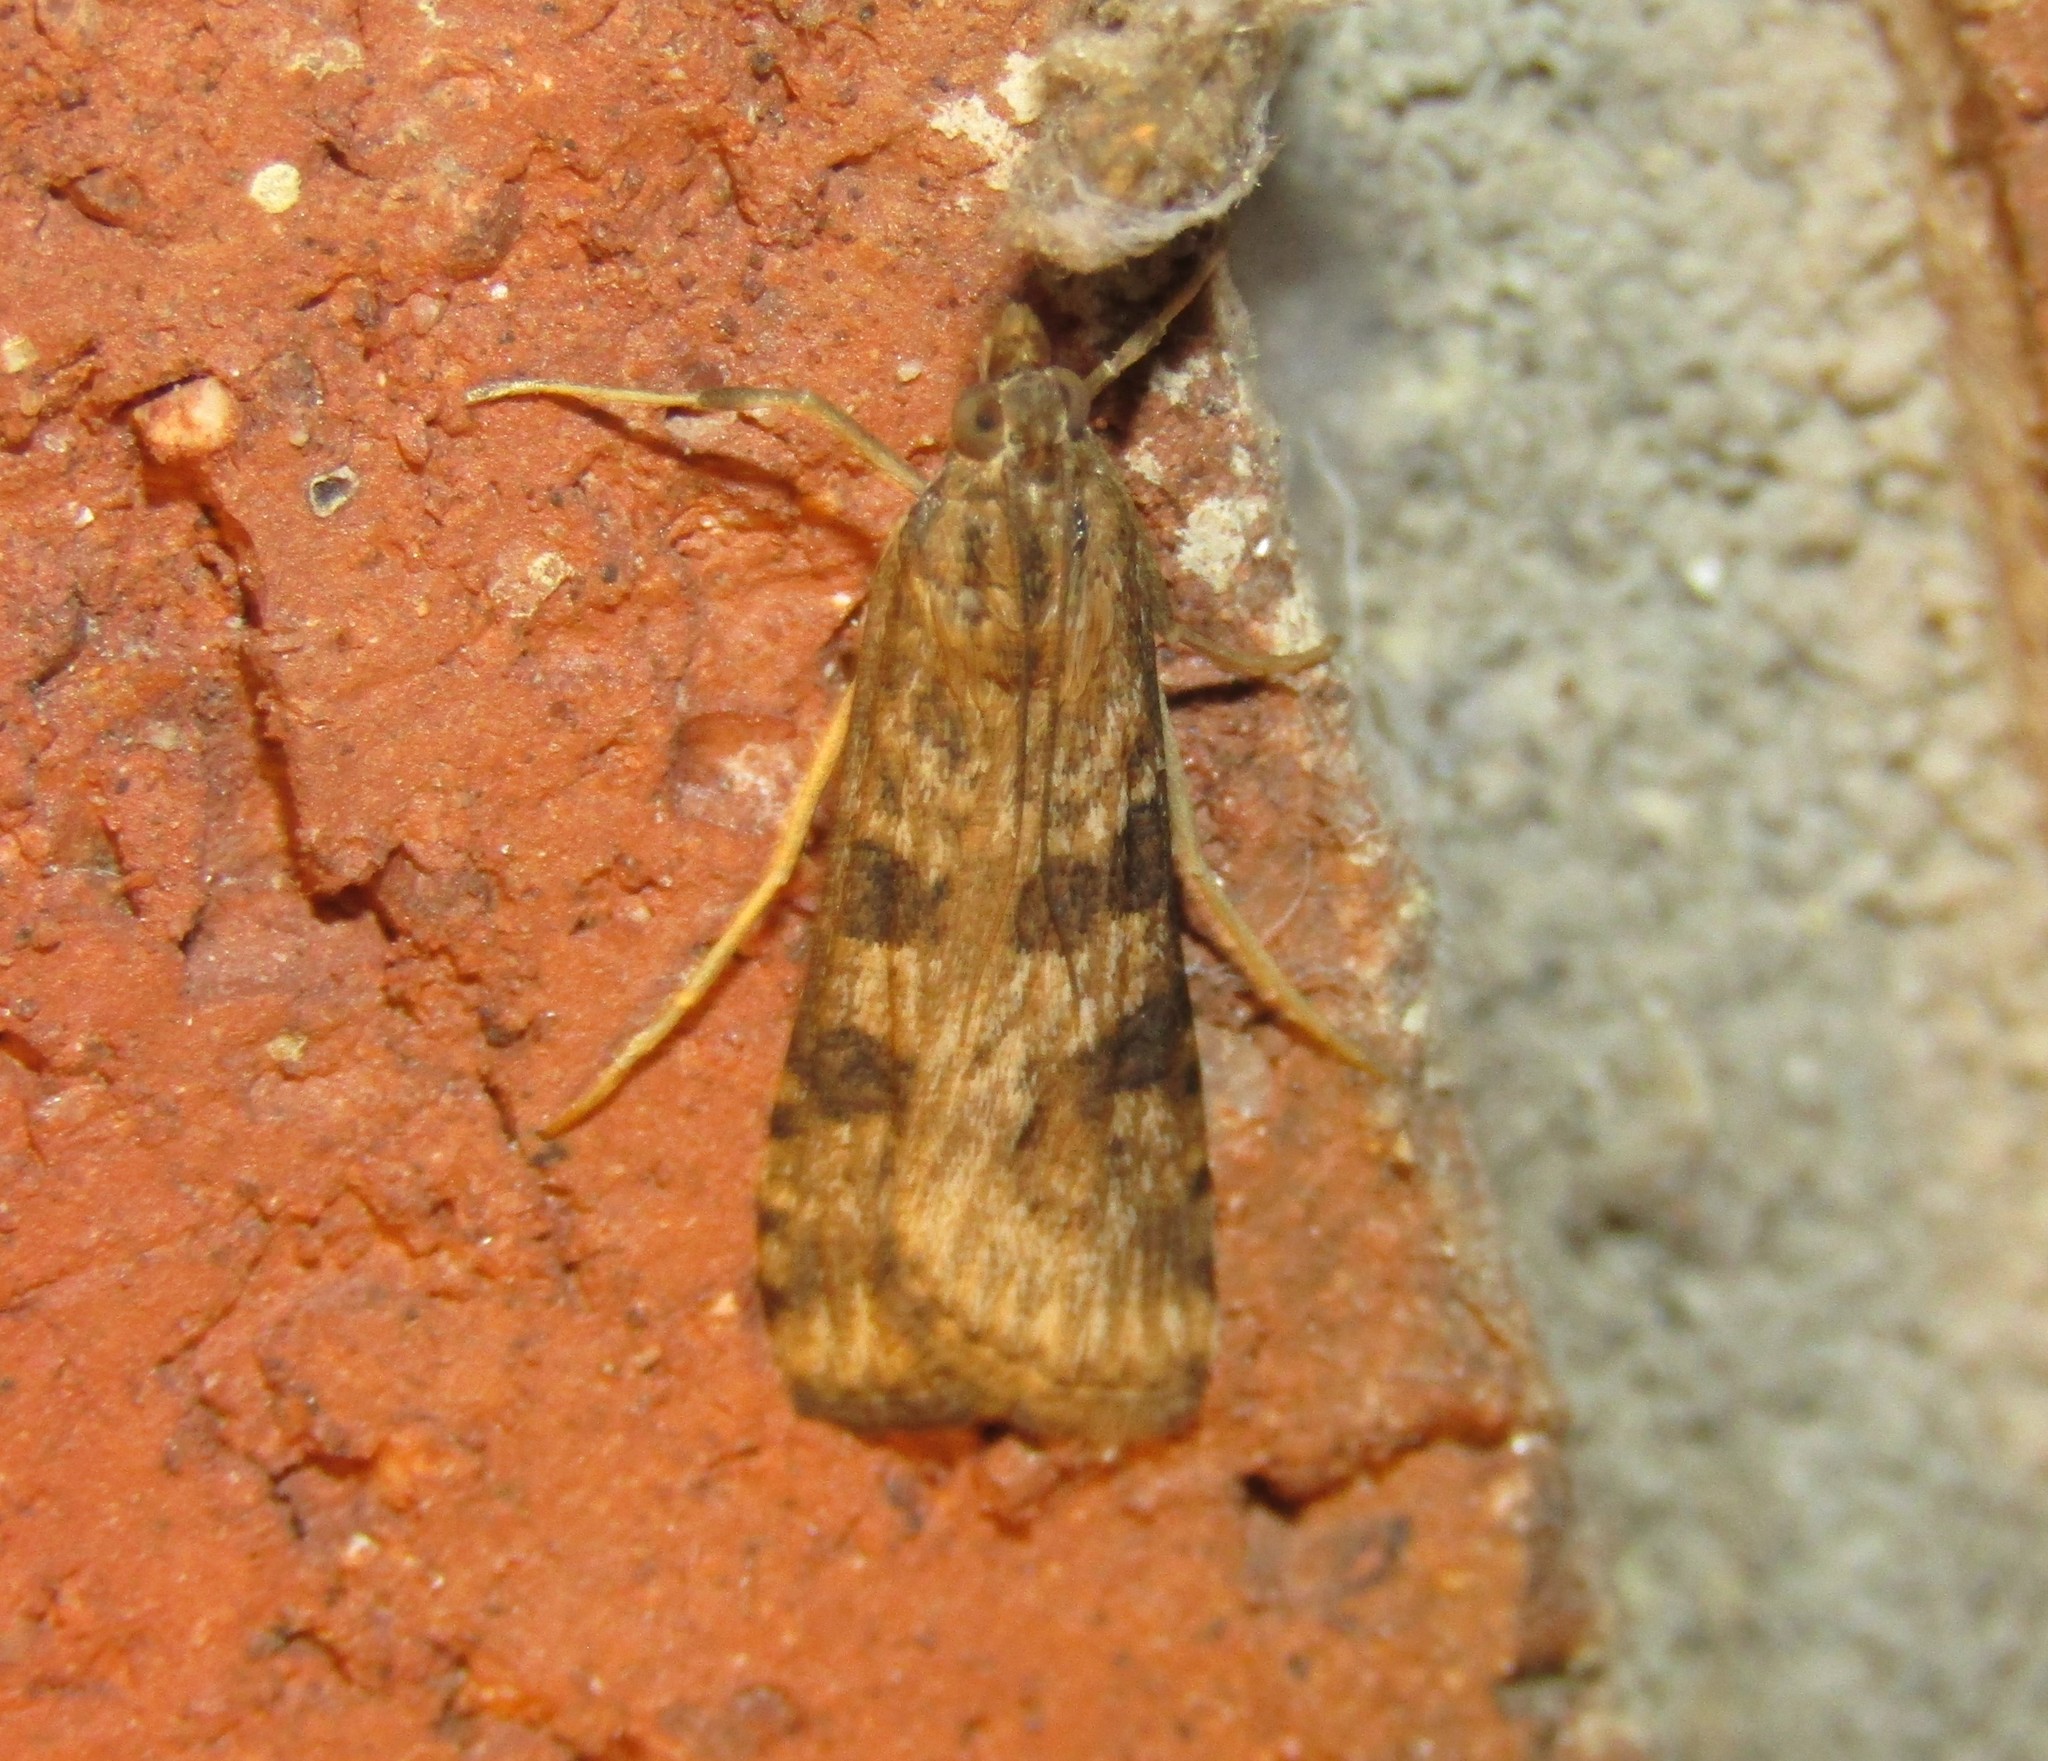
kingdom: Animalia
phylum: Arthropoda
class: Insecta
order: Lepidoptera
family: Crambidae
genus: Nomophila
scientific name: Nomophila nearctica
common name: American rush veneer
